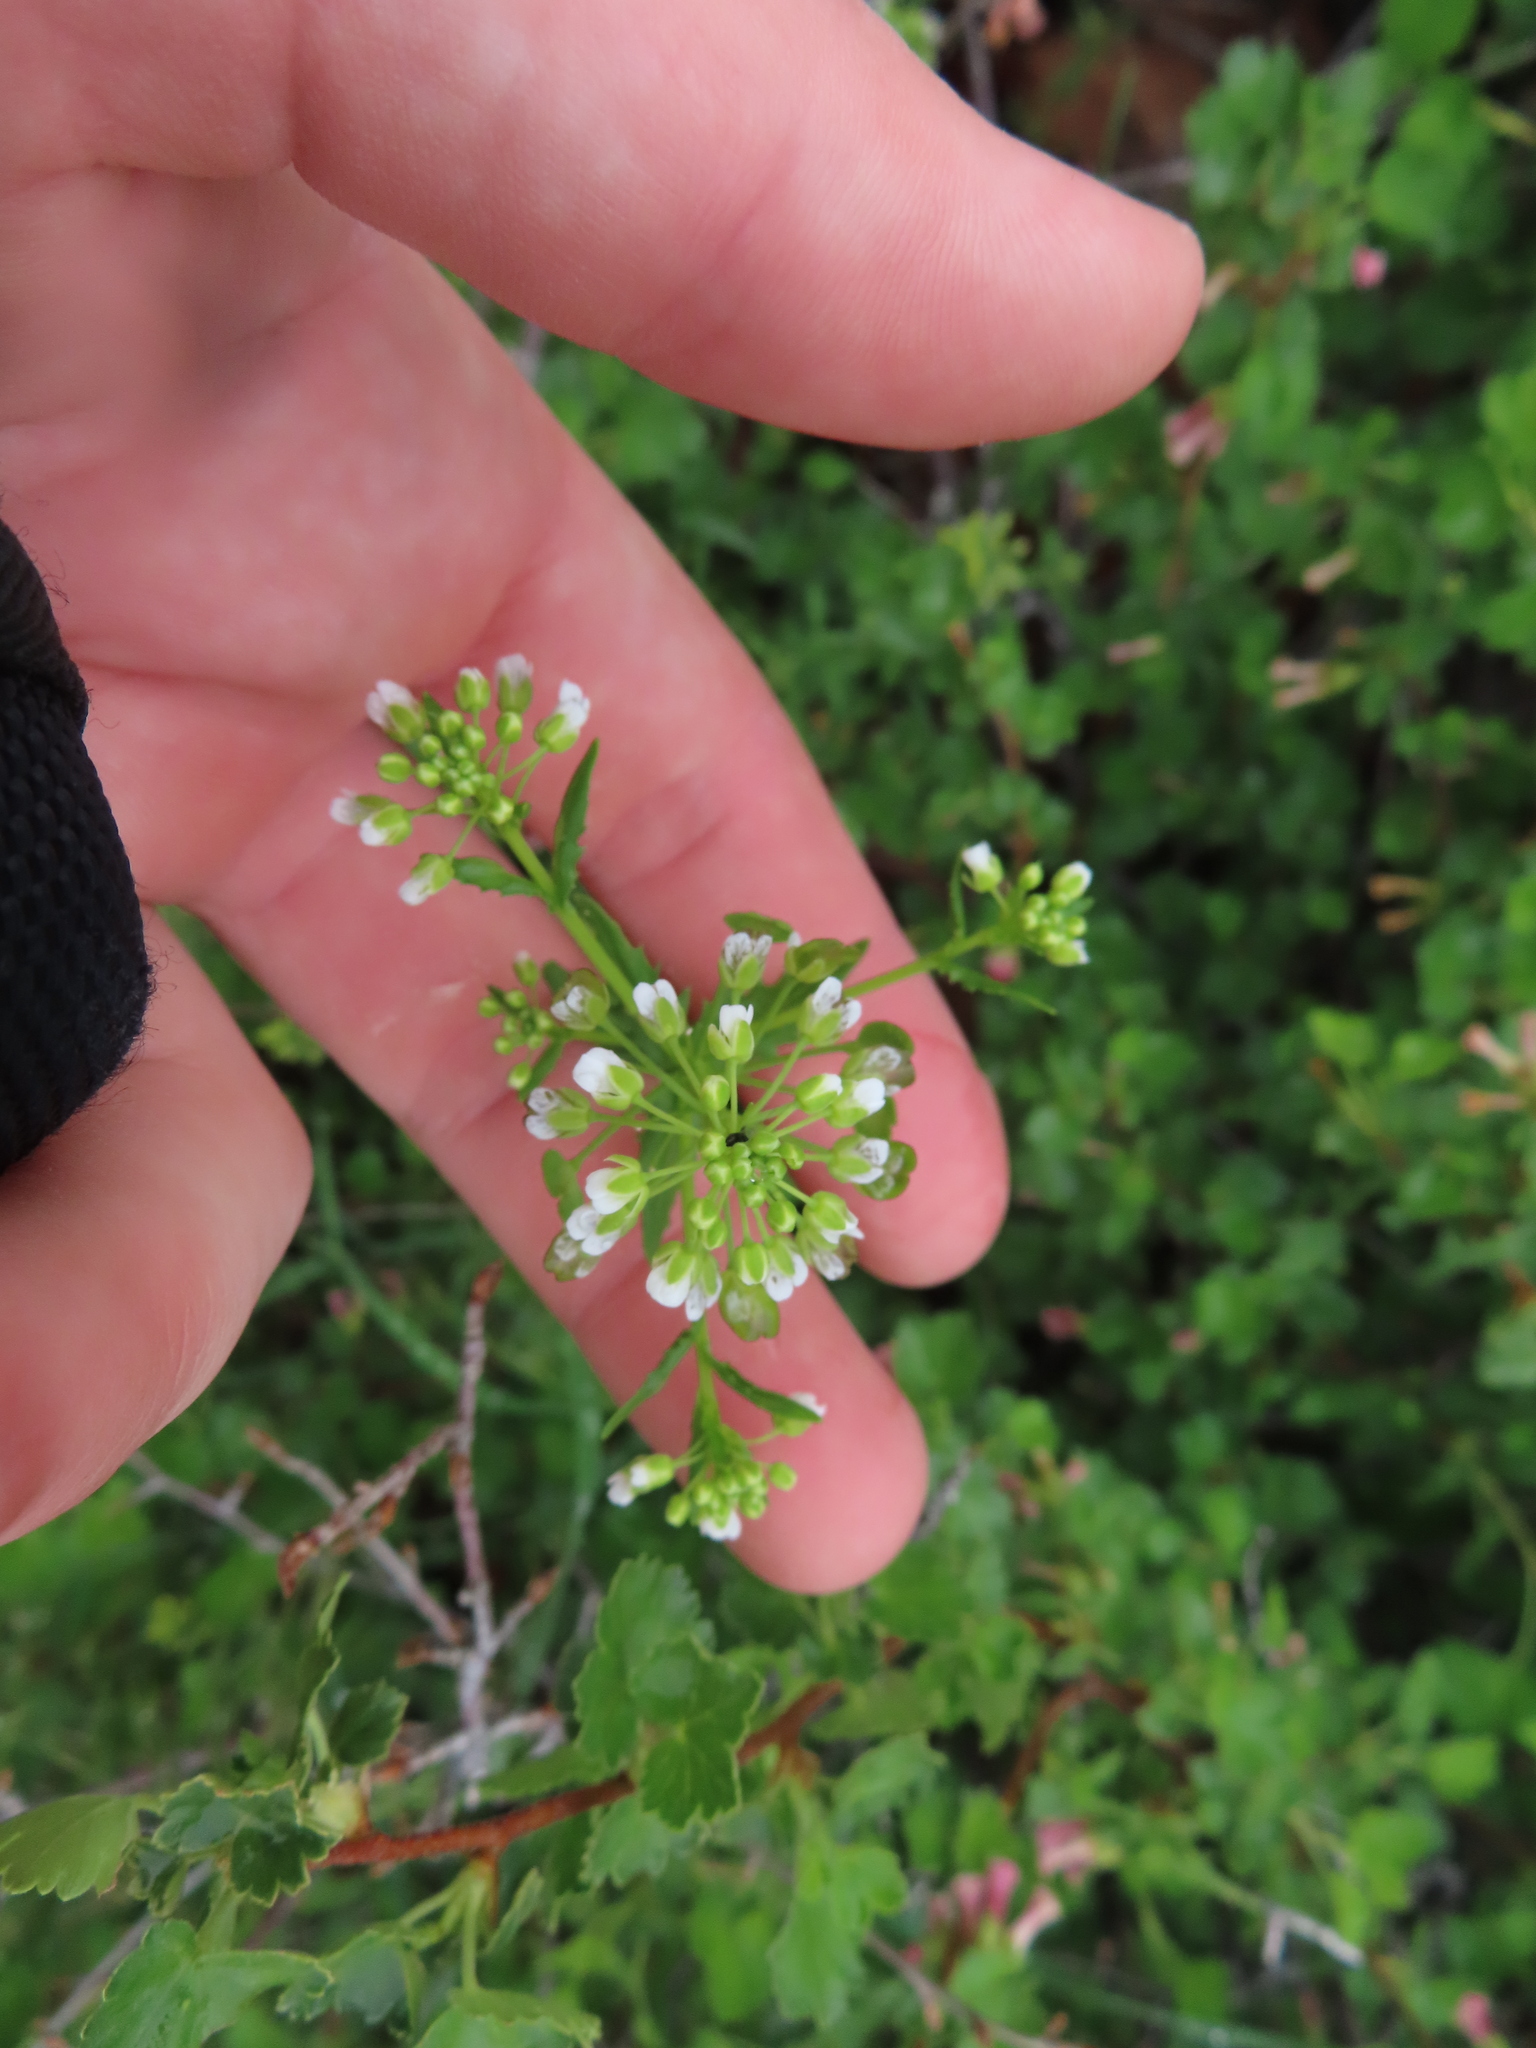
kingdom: Plantae
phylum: Tracheophyta
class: Magnoliopsida
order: Brassicales
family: Brassicaceae
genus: Thlaspi
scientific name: Thlaspi arvense
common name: Field pennycress
